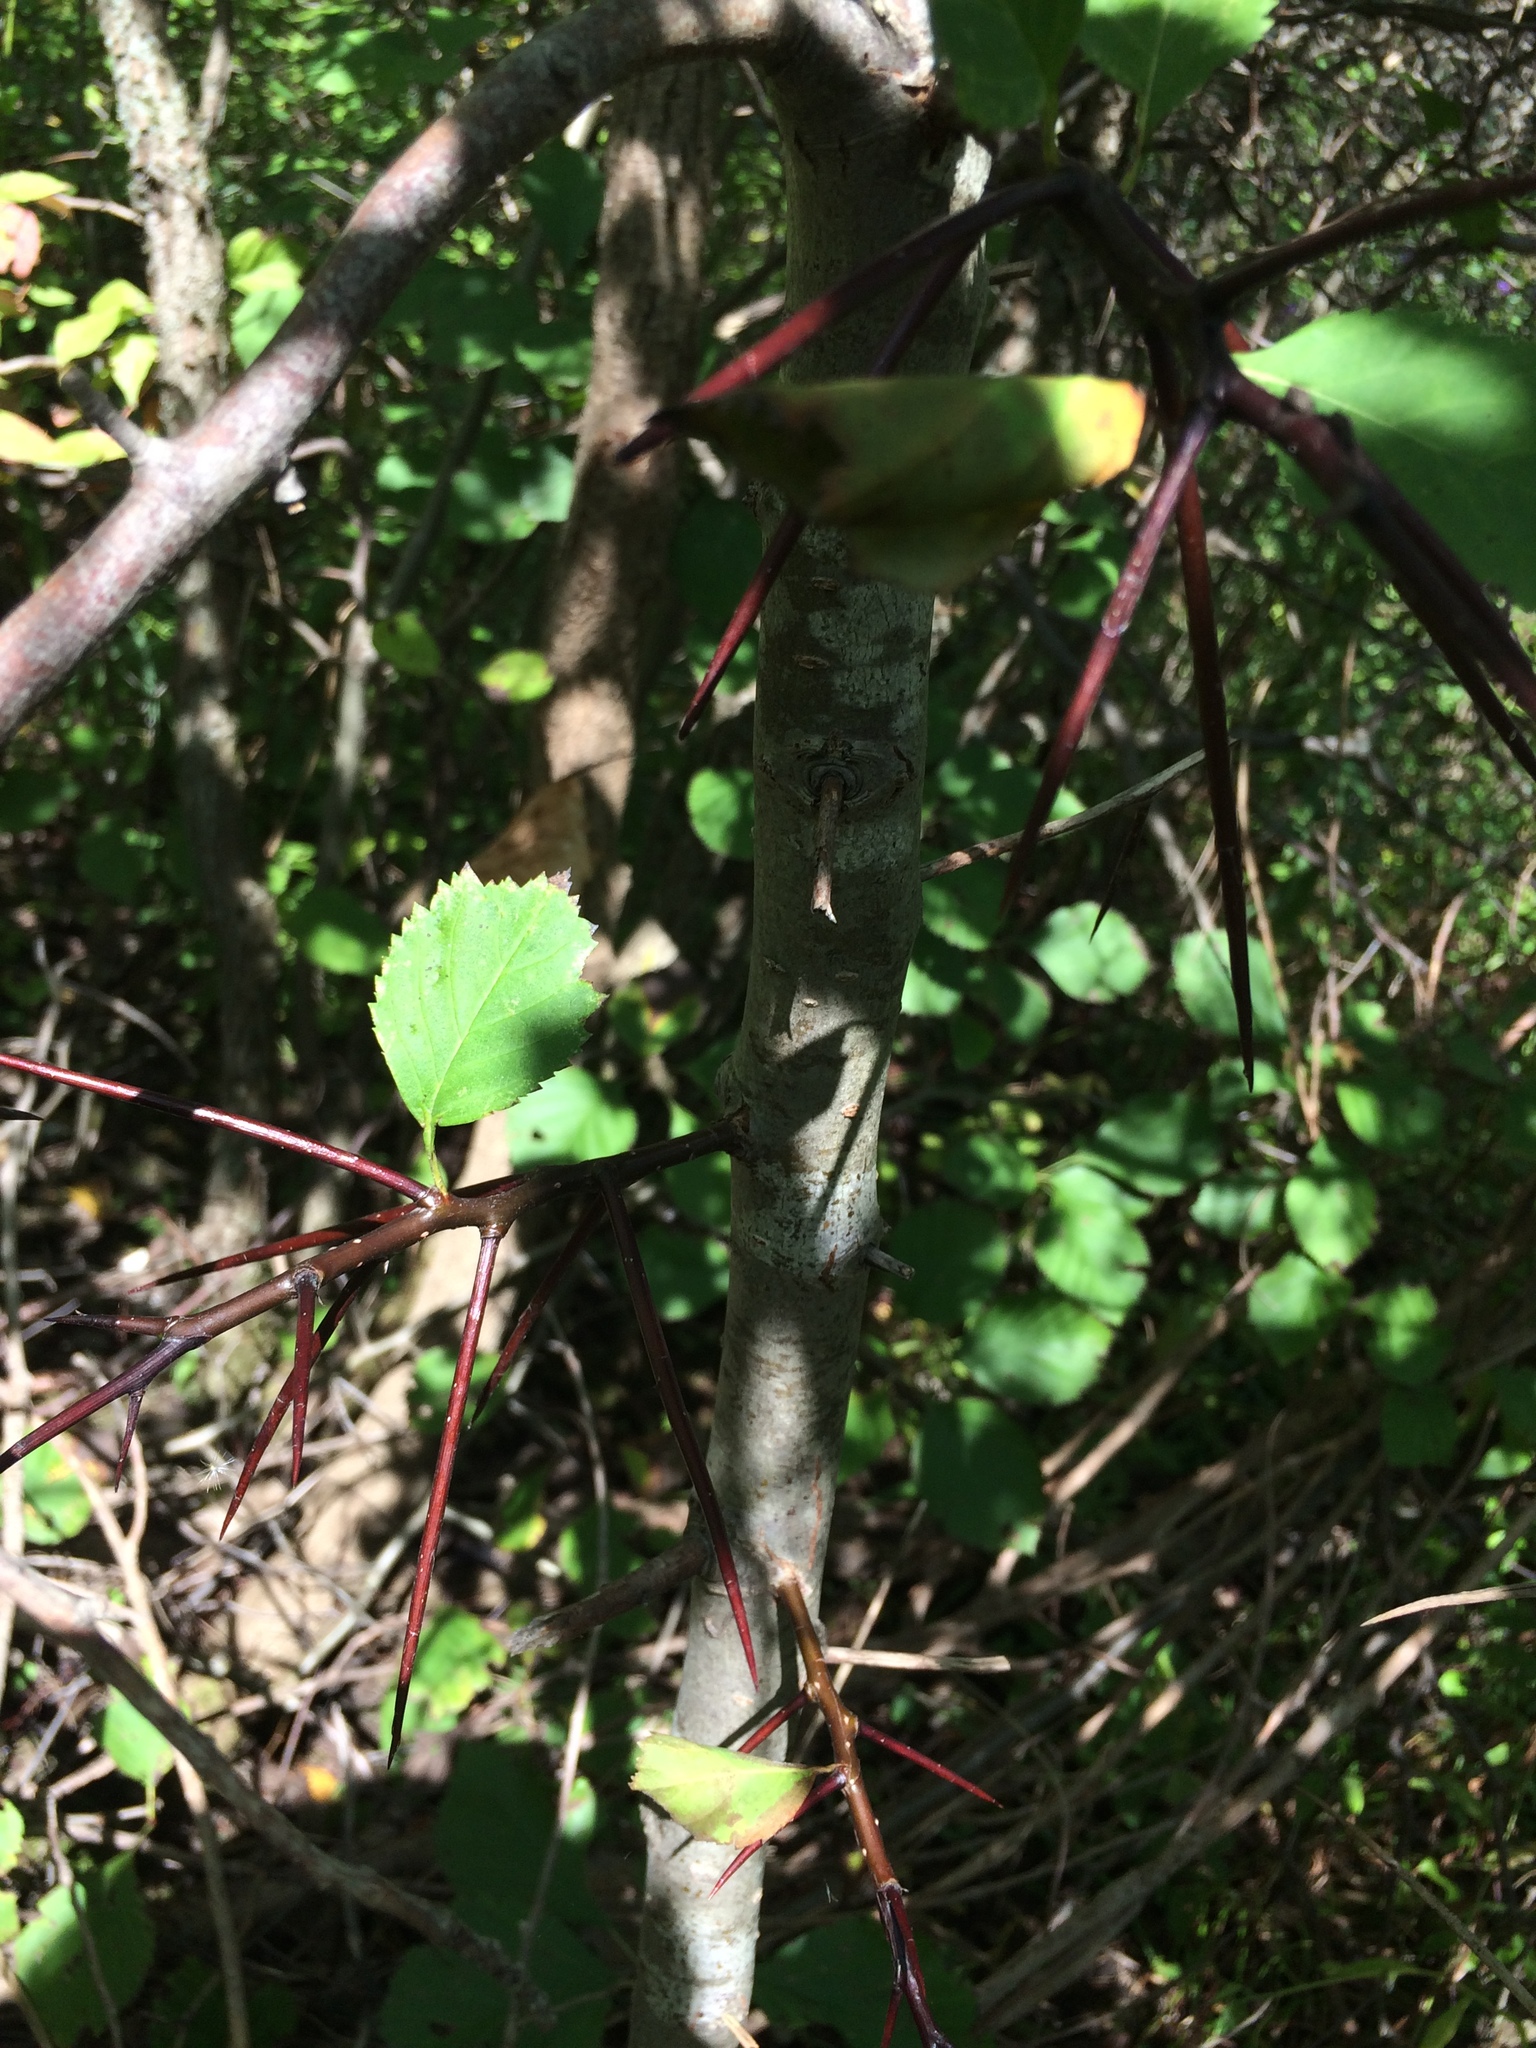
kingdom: Plantae
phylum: Tracheophyta
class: Magnoliopsida
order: Rosales
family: Rosaceae
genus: Crataegus
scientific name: Crataegus macracantha
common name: Large-thorn hawthorn
